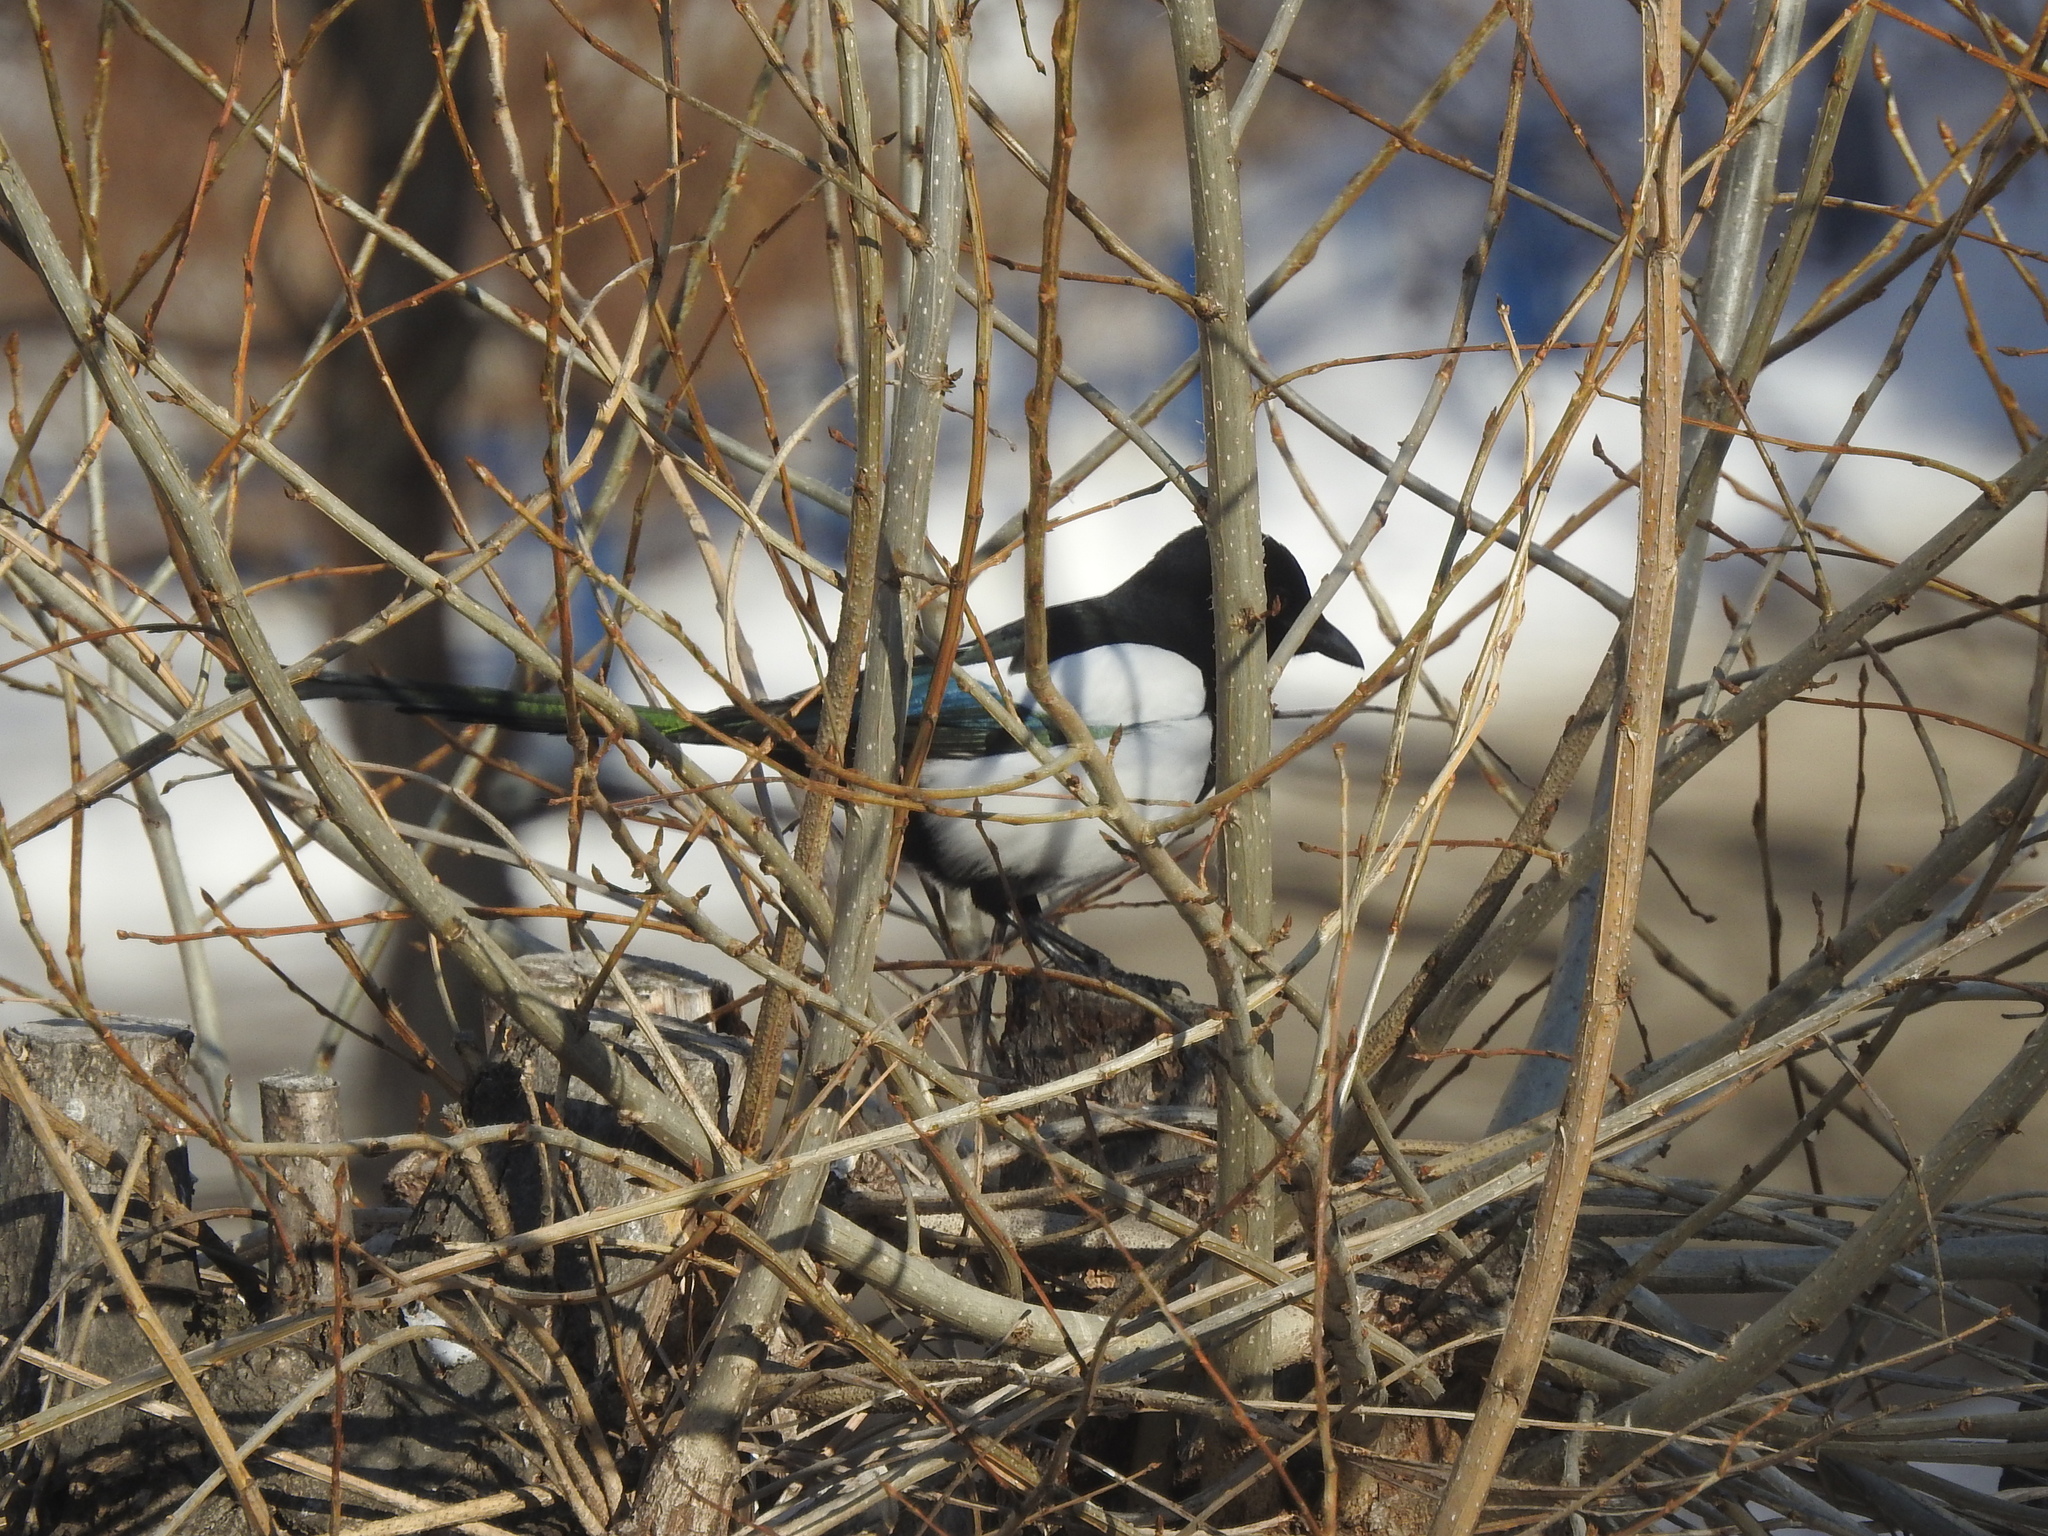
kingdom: Animalia
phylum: Chordata
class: Aves
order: Passeriformes
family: Corvidae
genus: Pica
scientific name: Pica pica
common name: Eurasian magpie
